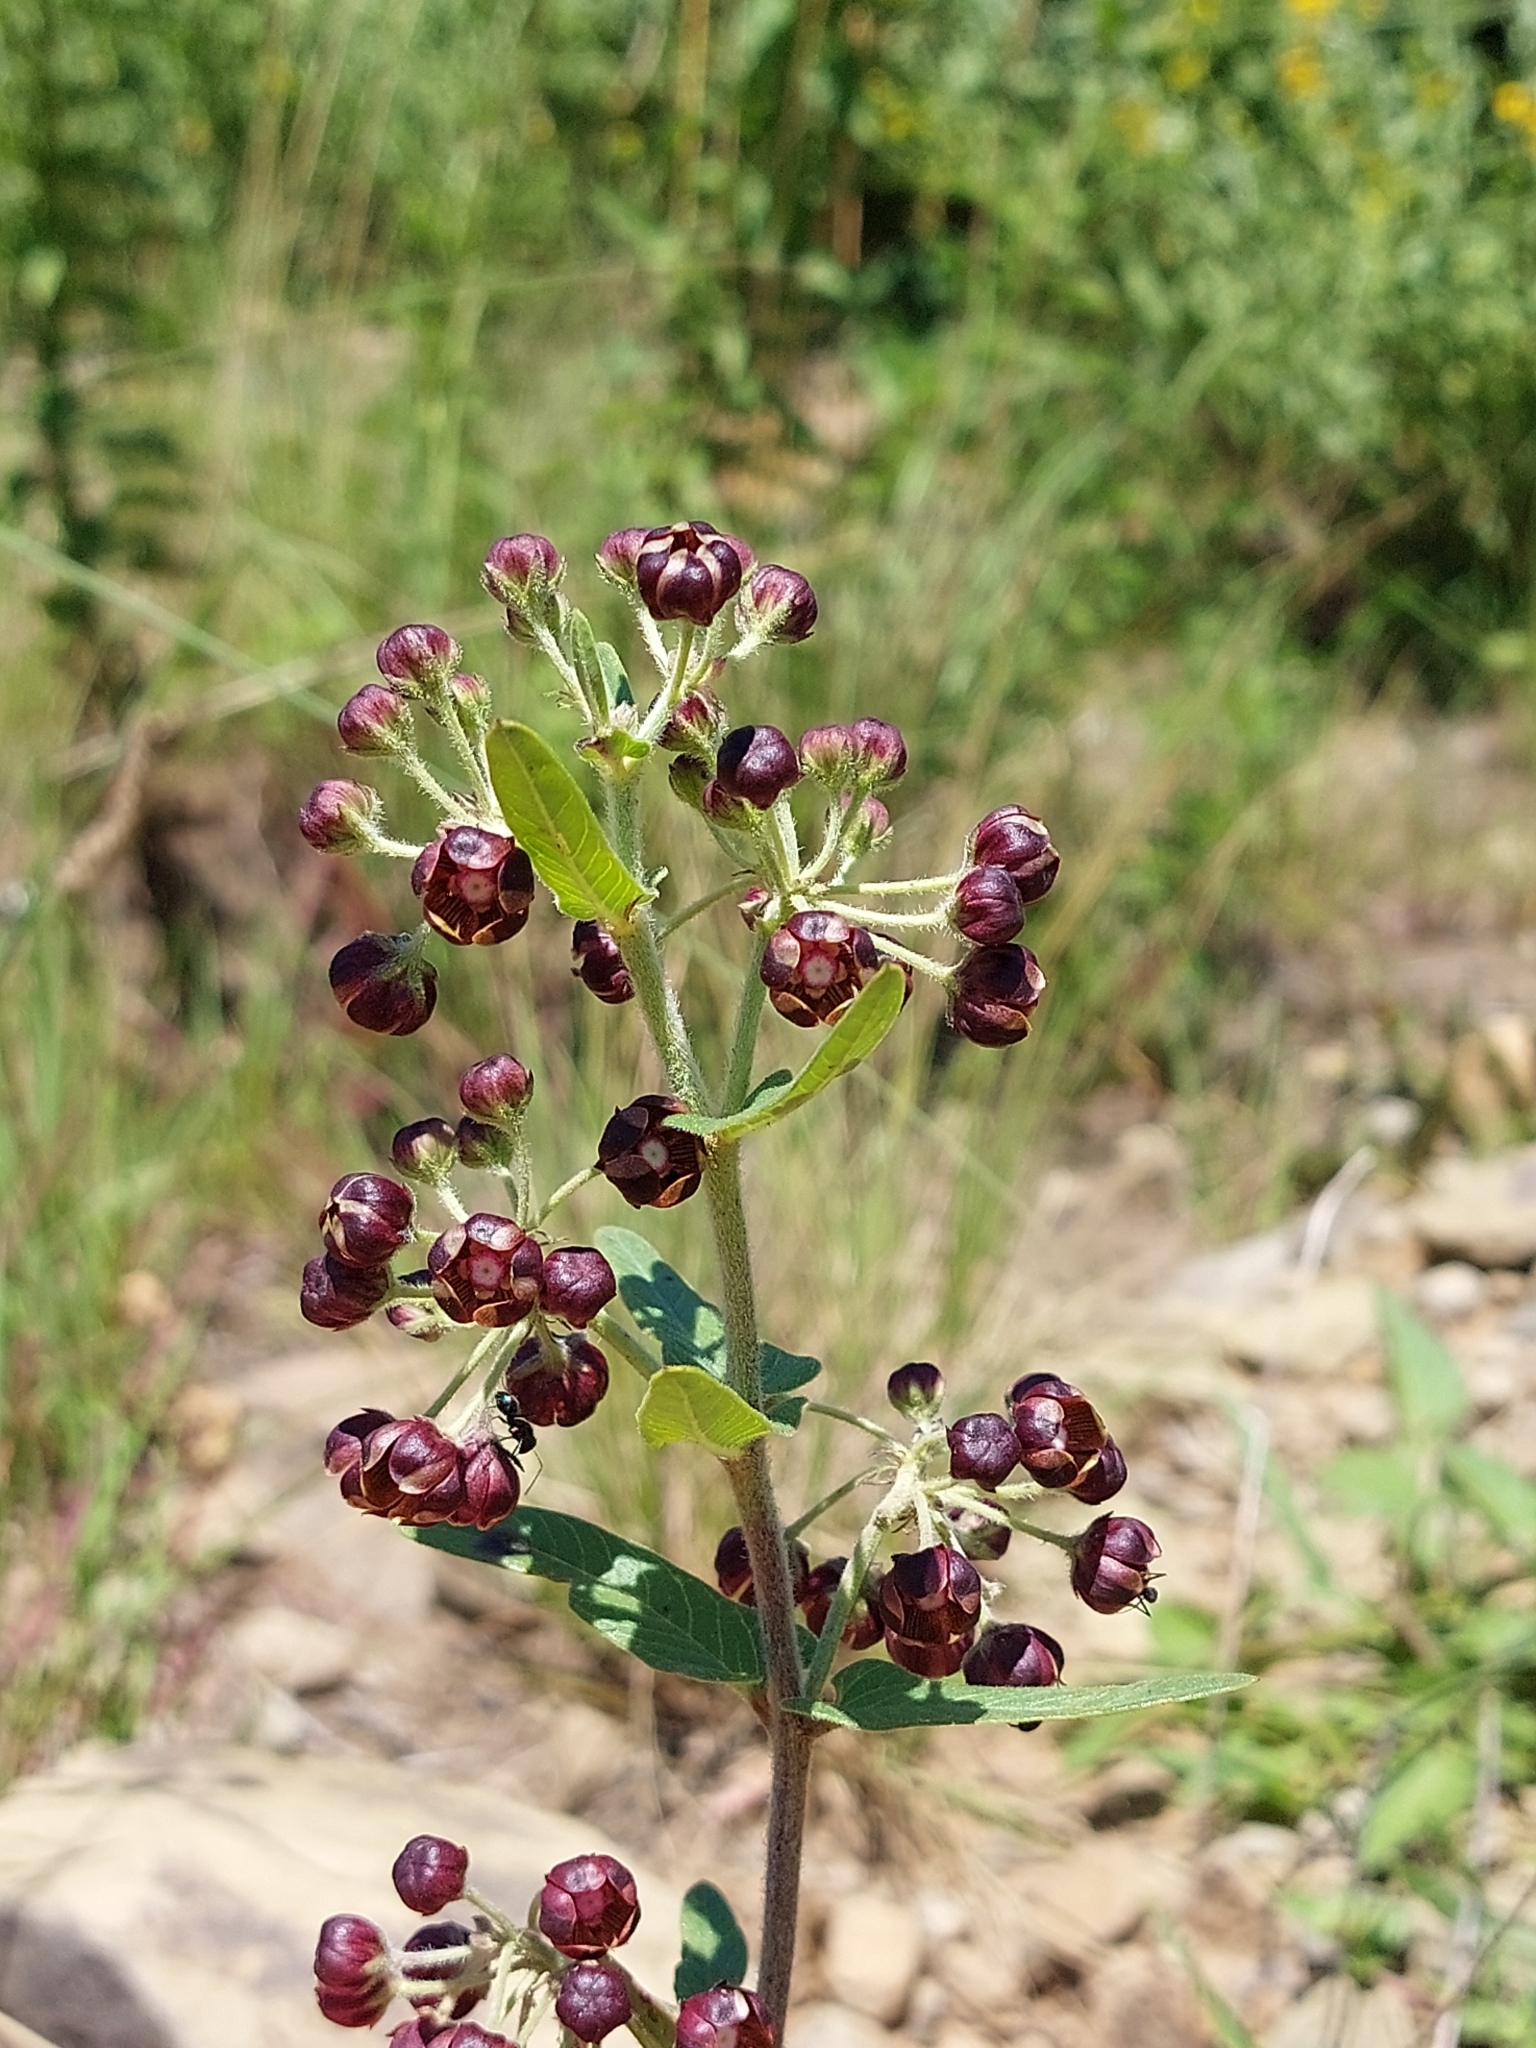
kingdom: Plantae
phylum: Tracheophyta
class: Magnoliopsida
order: Gentianales
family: Apocynaceae
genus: Schizoglossum
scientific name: Schizoglossum atropurpureum
